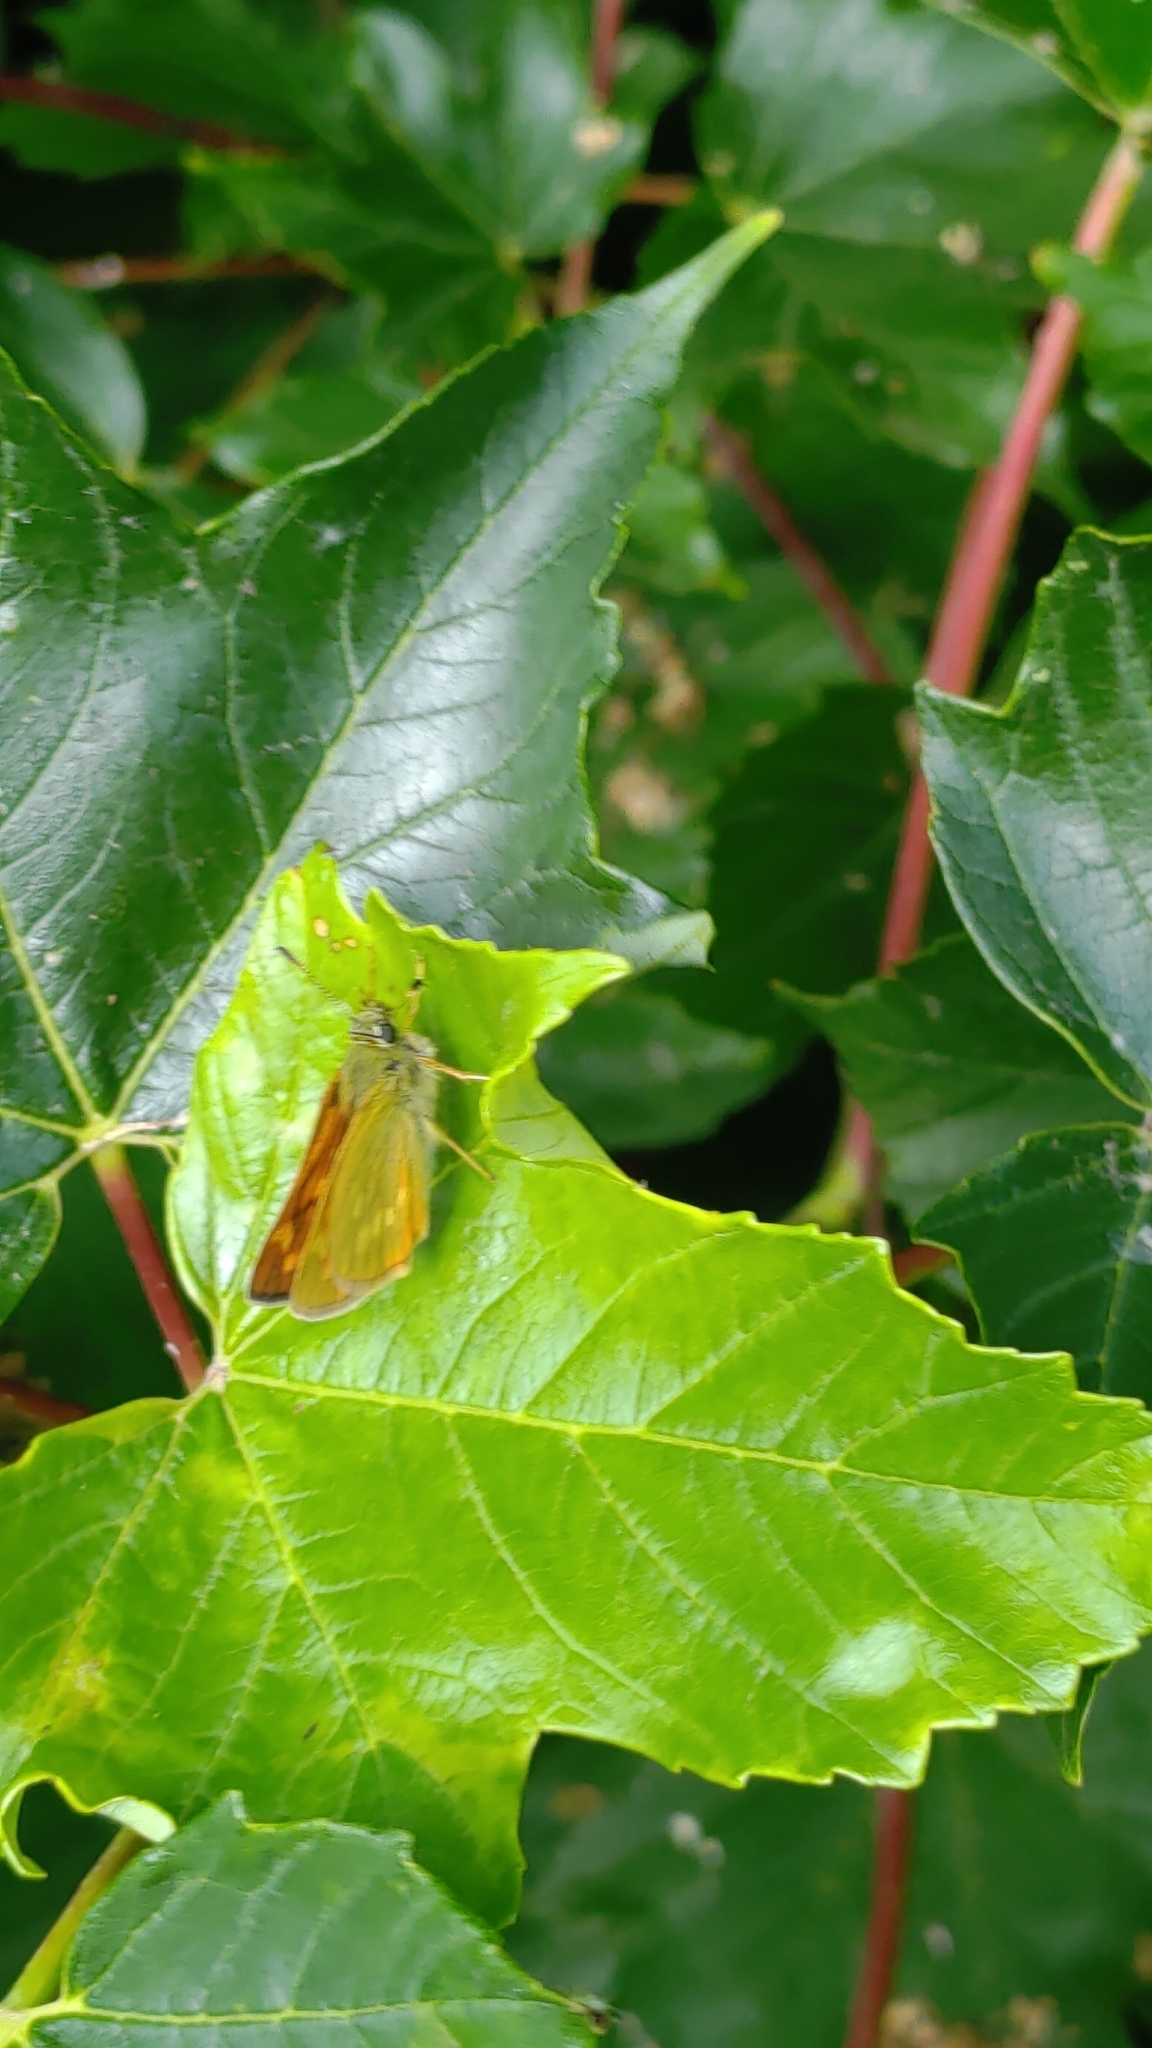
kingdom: Animalia
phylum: Arthropoda
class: Insecta
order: Lepidoptera
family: Hesperiidae
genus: Ochlodes
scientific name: Ochlodes venata
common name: Large skipper
